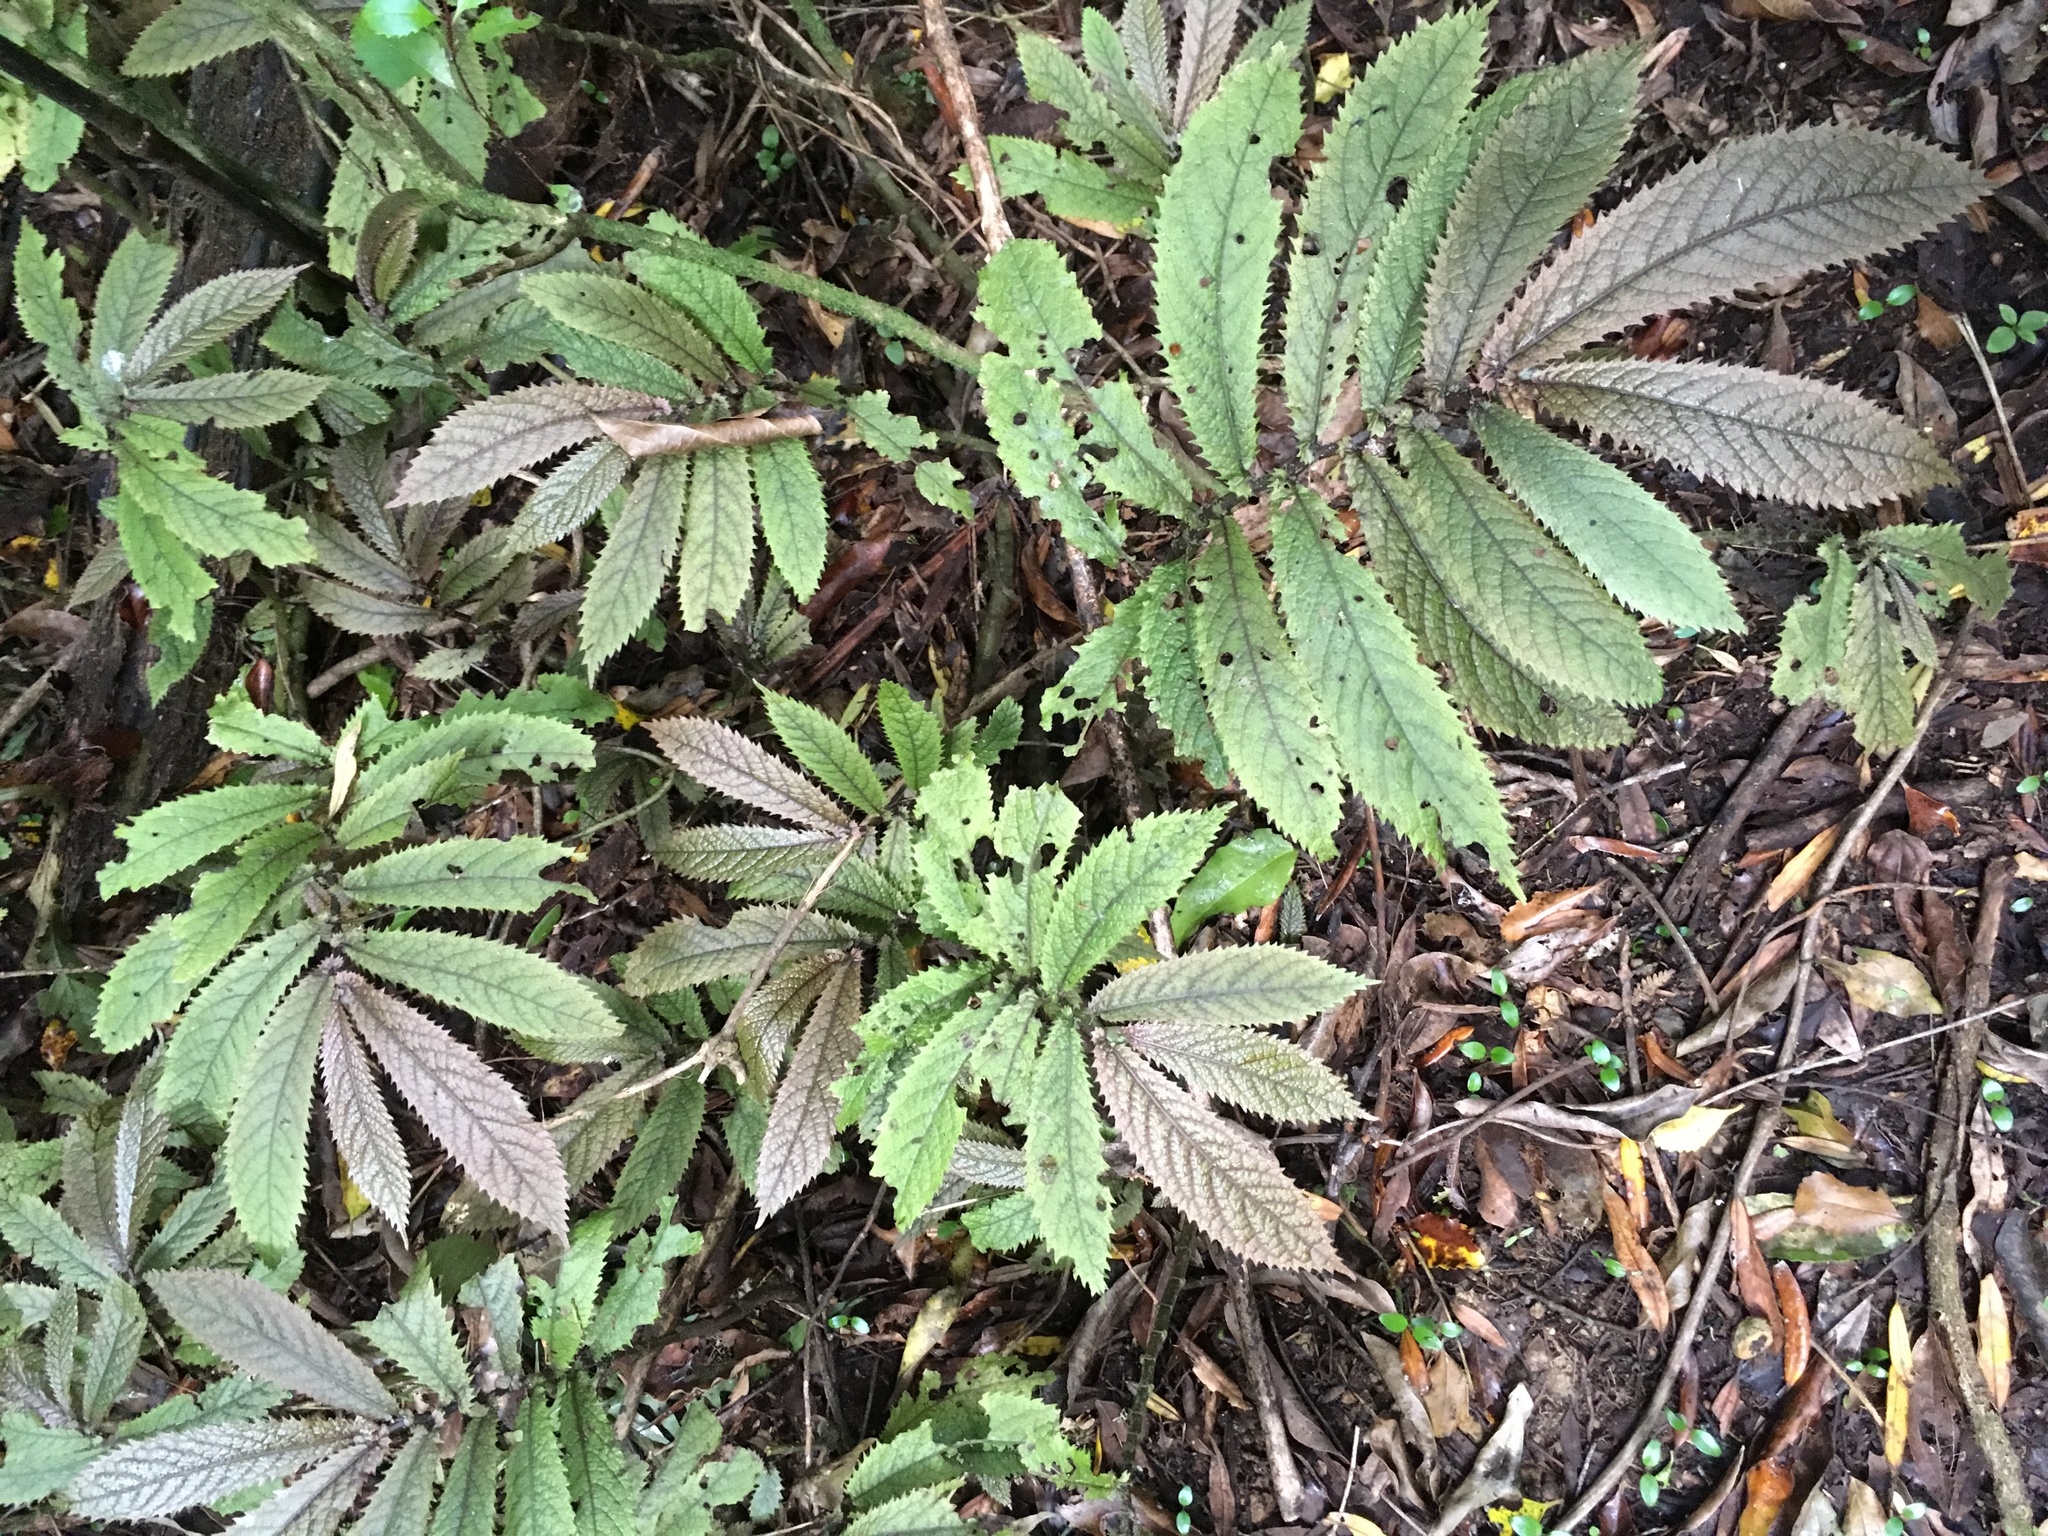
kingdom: Plantae
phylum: Tracheophyta
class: Magnoliopsida
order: Rosales
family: Urticaceae
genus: Elatostema
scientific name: Elatostema rugosum
